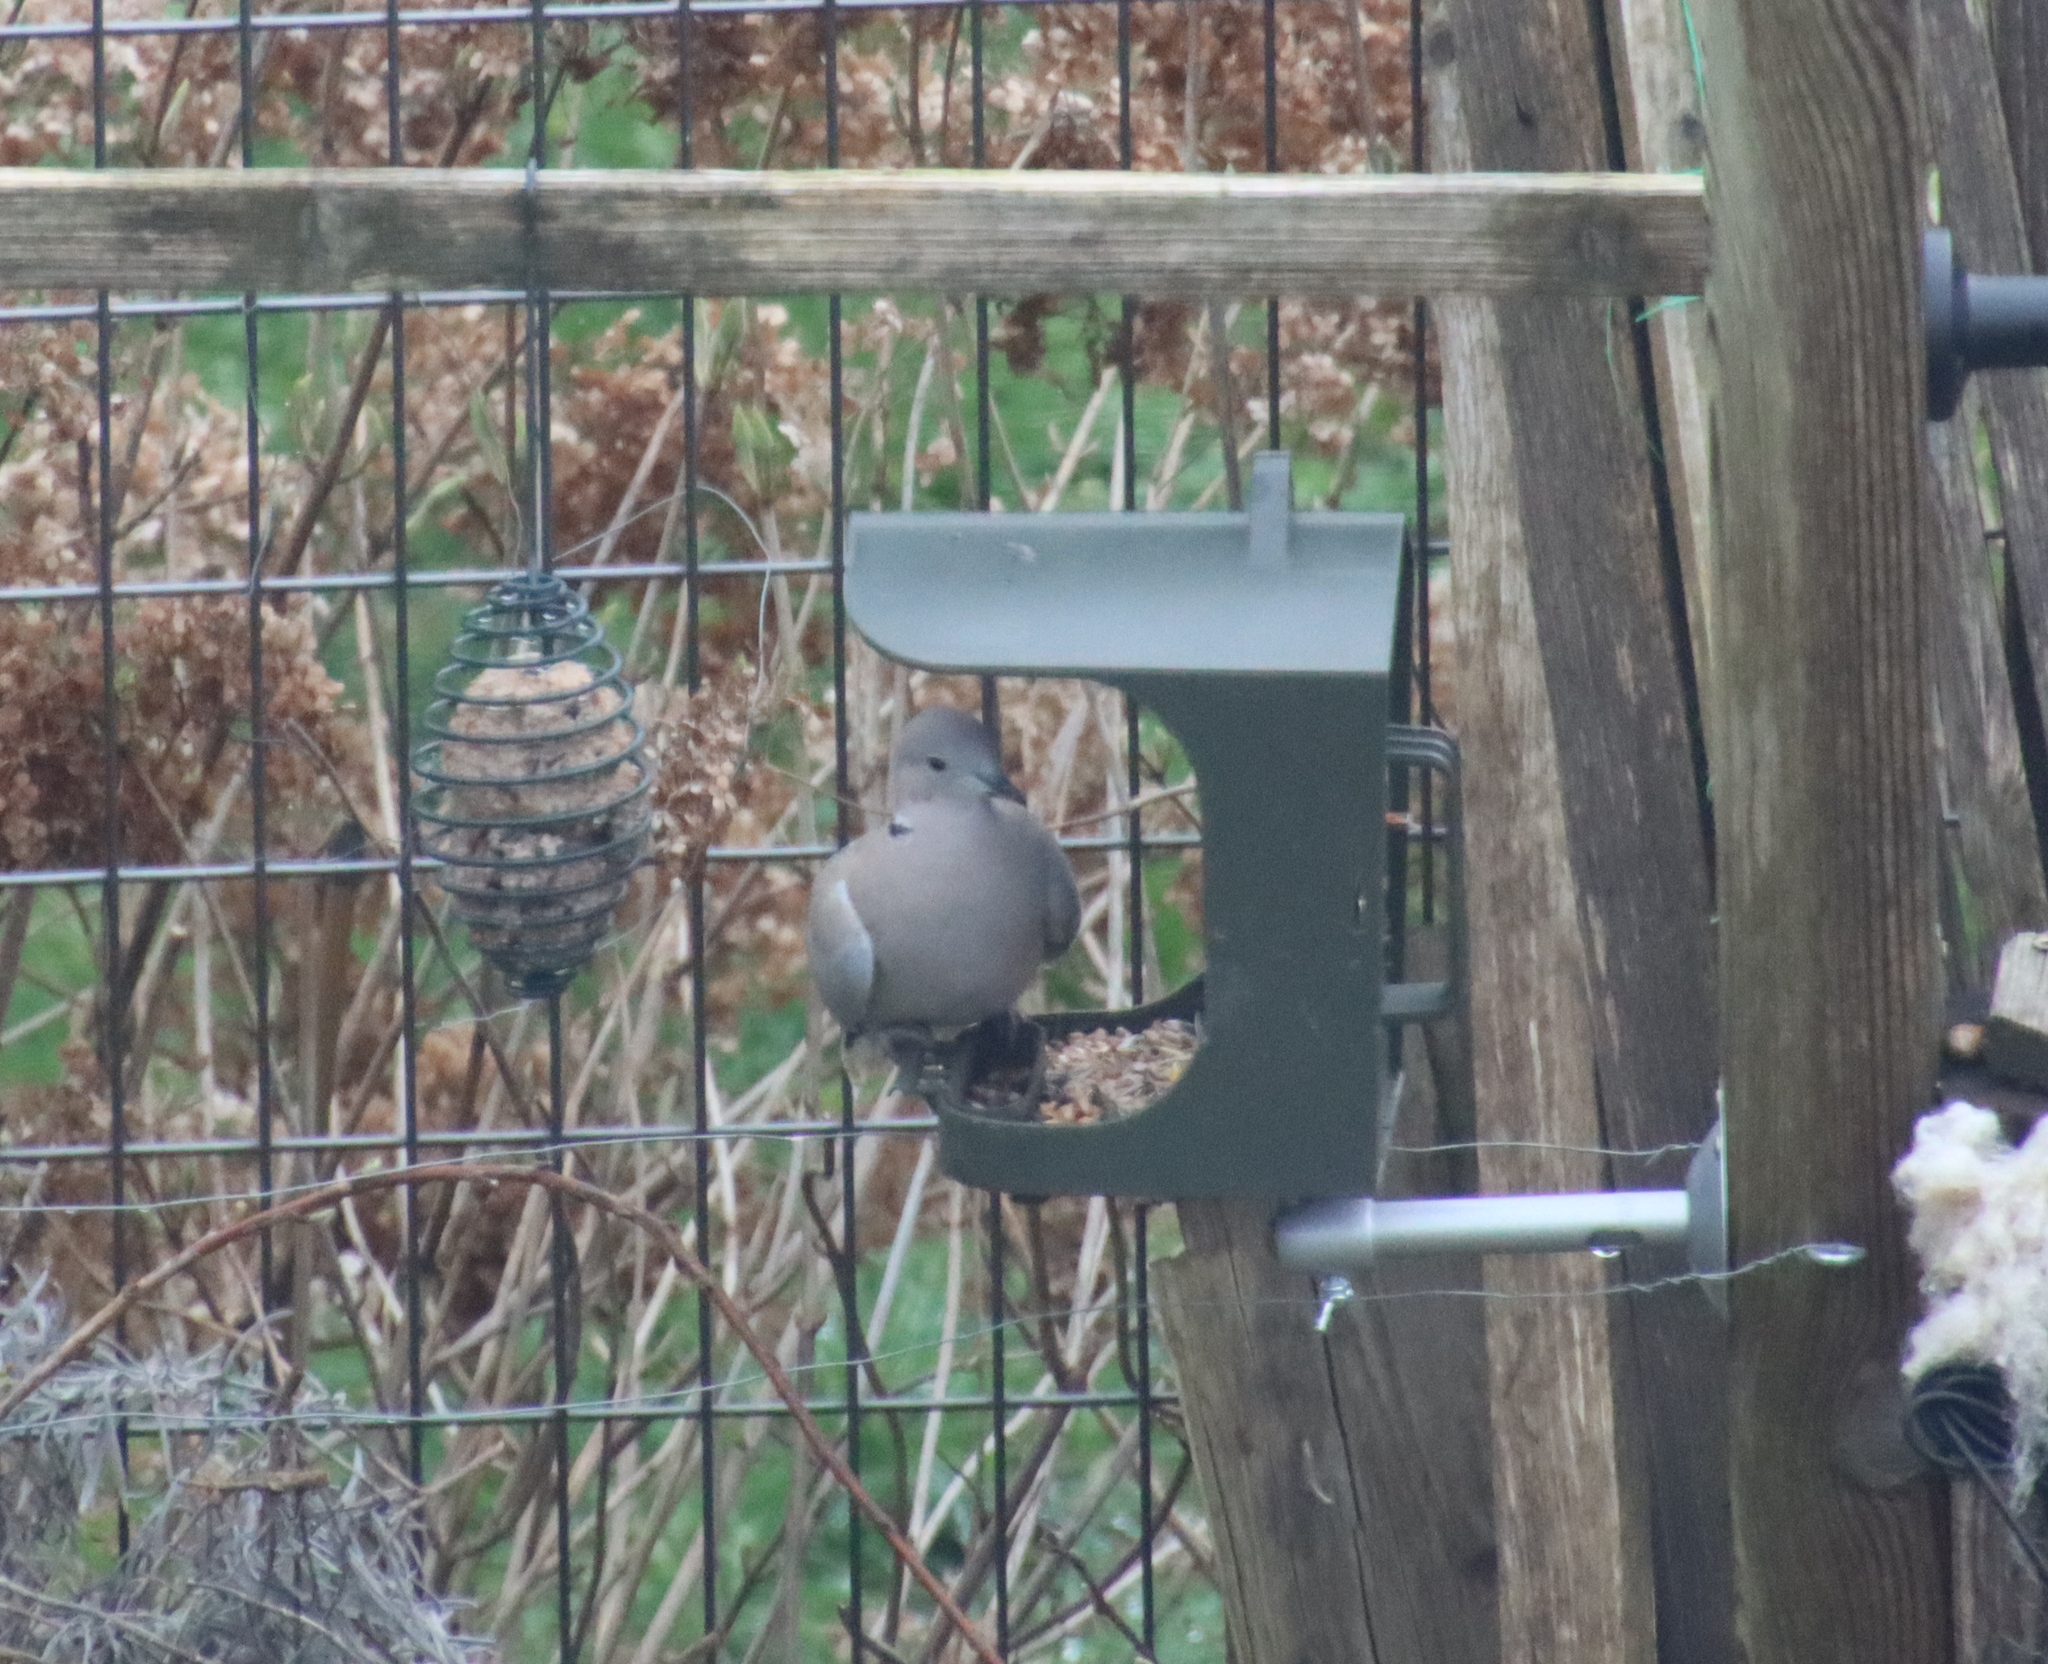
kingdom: Animalia
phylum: Chordata
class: Aves
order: Columbiformes
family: Columbidae
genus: Streptopelia
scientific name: Streptopelia decaocto
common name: Eurasian collared dove
